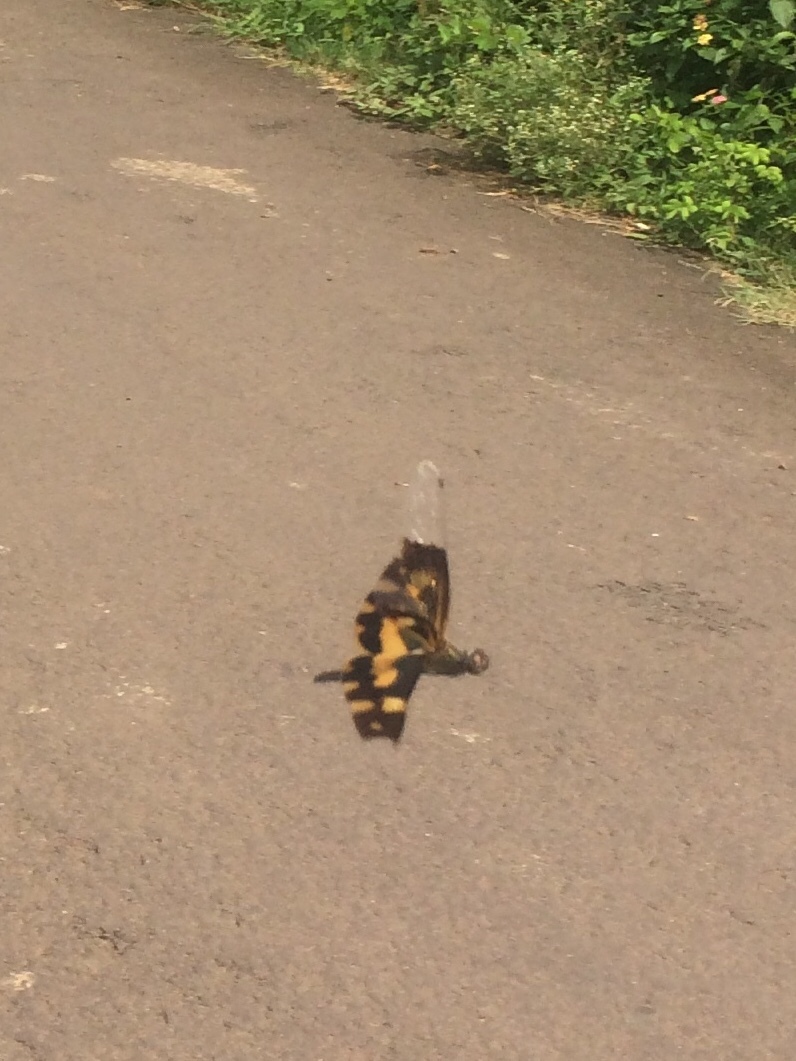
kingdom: Animalia
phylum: Arthropoda
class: Insecta
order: Odonata
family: Libellulidae
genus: Rhyothemis
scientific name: Rhyothemis variegata
